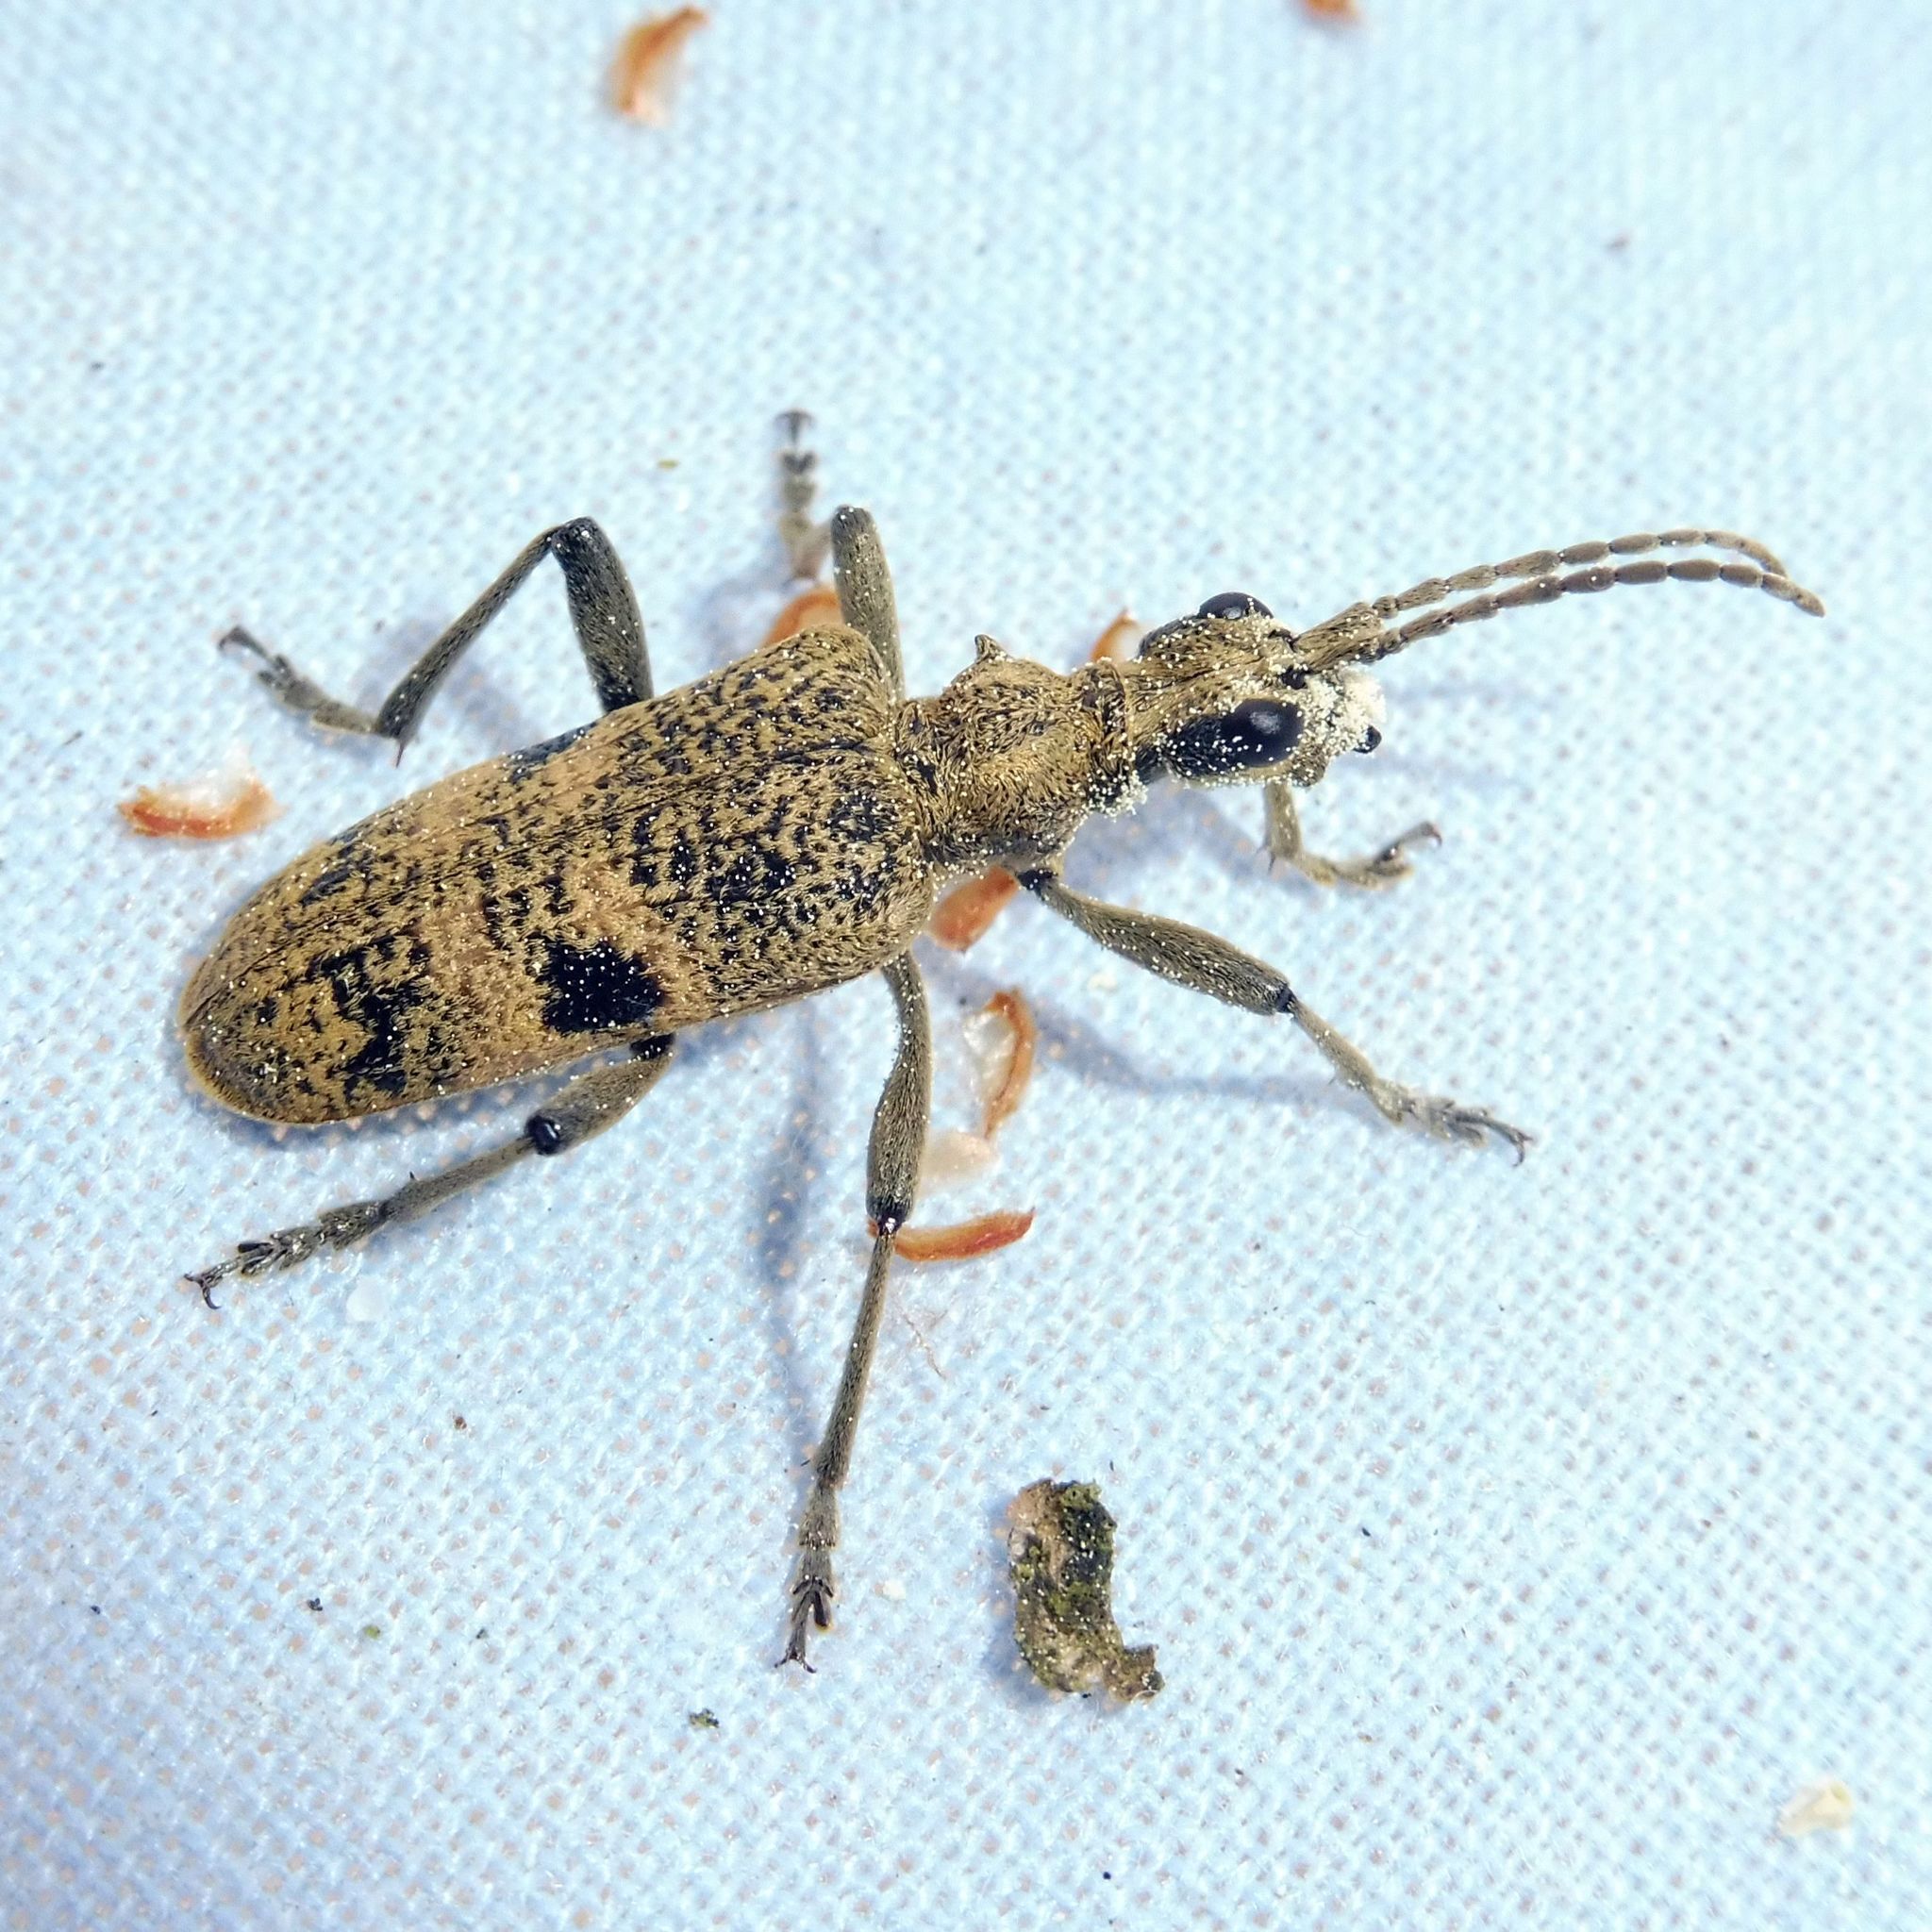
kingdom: Animalia
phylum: Arthropoda
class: Insecta
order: Coleoptera
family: Cerambycidae
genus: Rhagium
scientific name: Rhagium mordax
